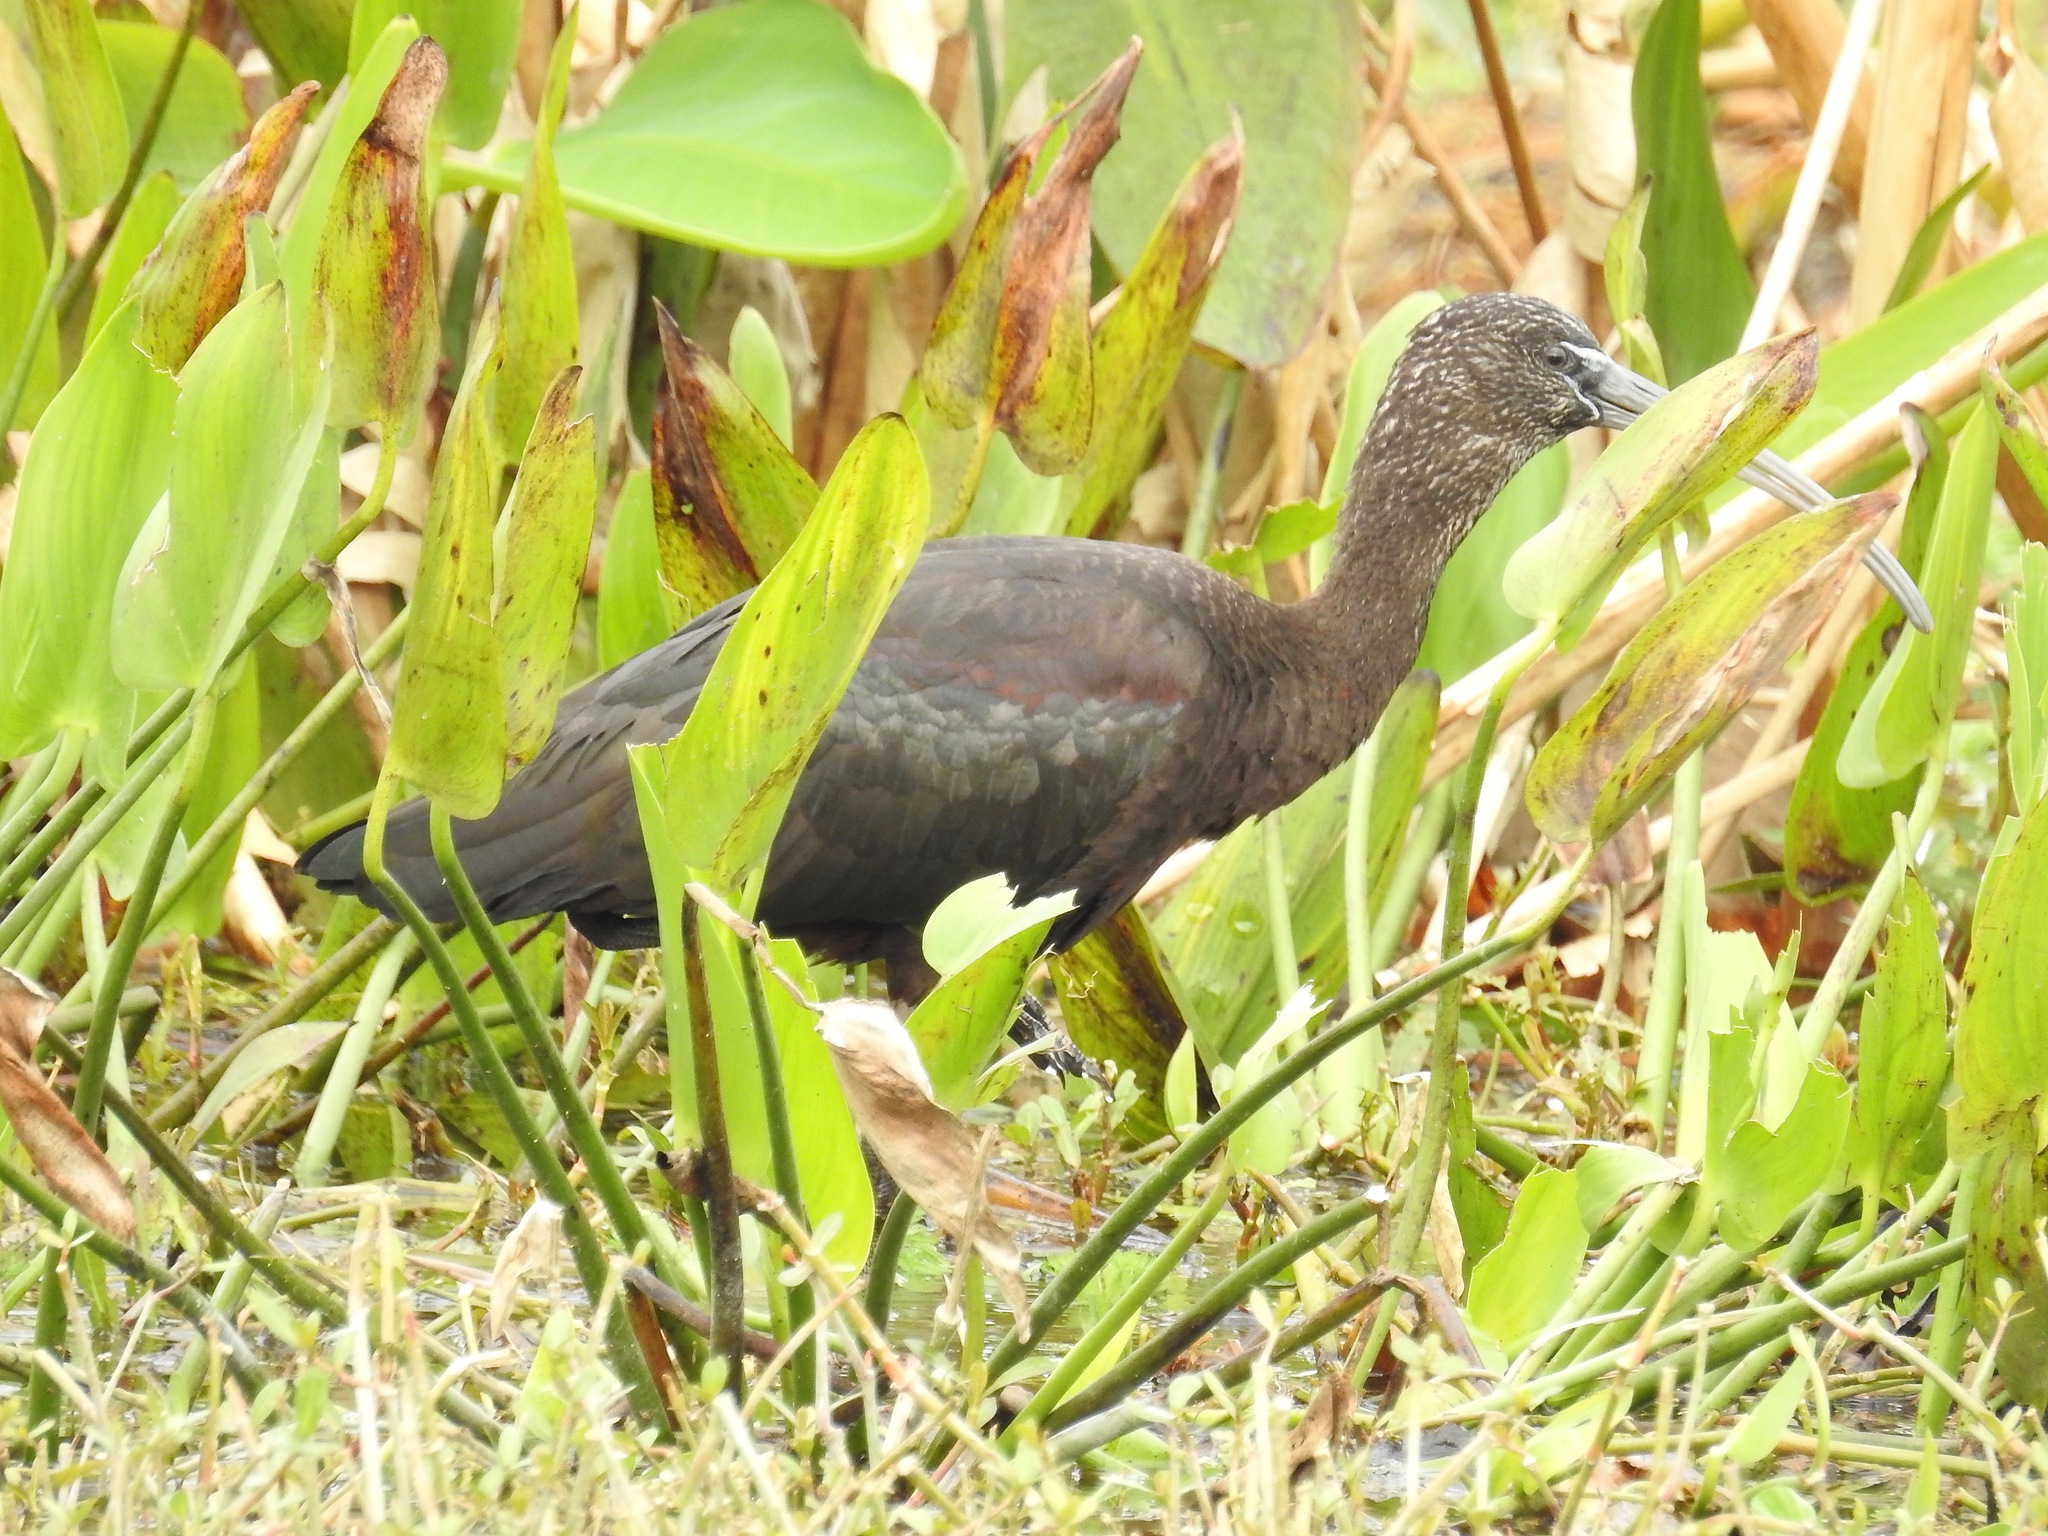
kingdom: Animalia
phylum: Chordata
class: Aves
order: Pelecaniformes
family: Threskiornithidae
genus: Plegadis
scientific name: Plegadis falcinellus
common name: Glossy ibis
